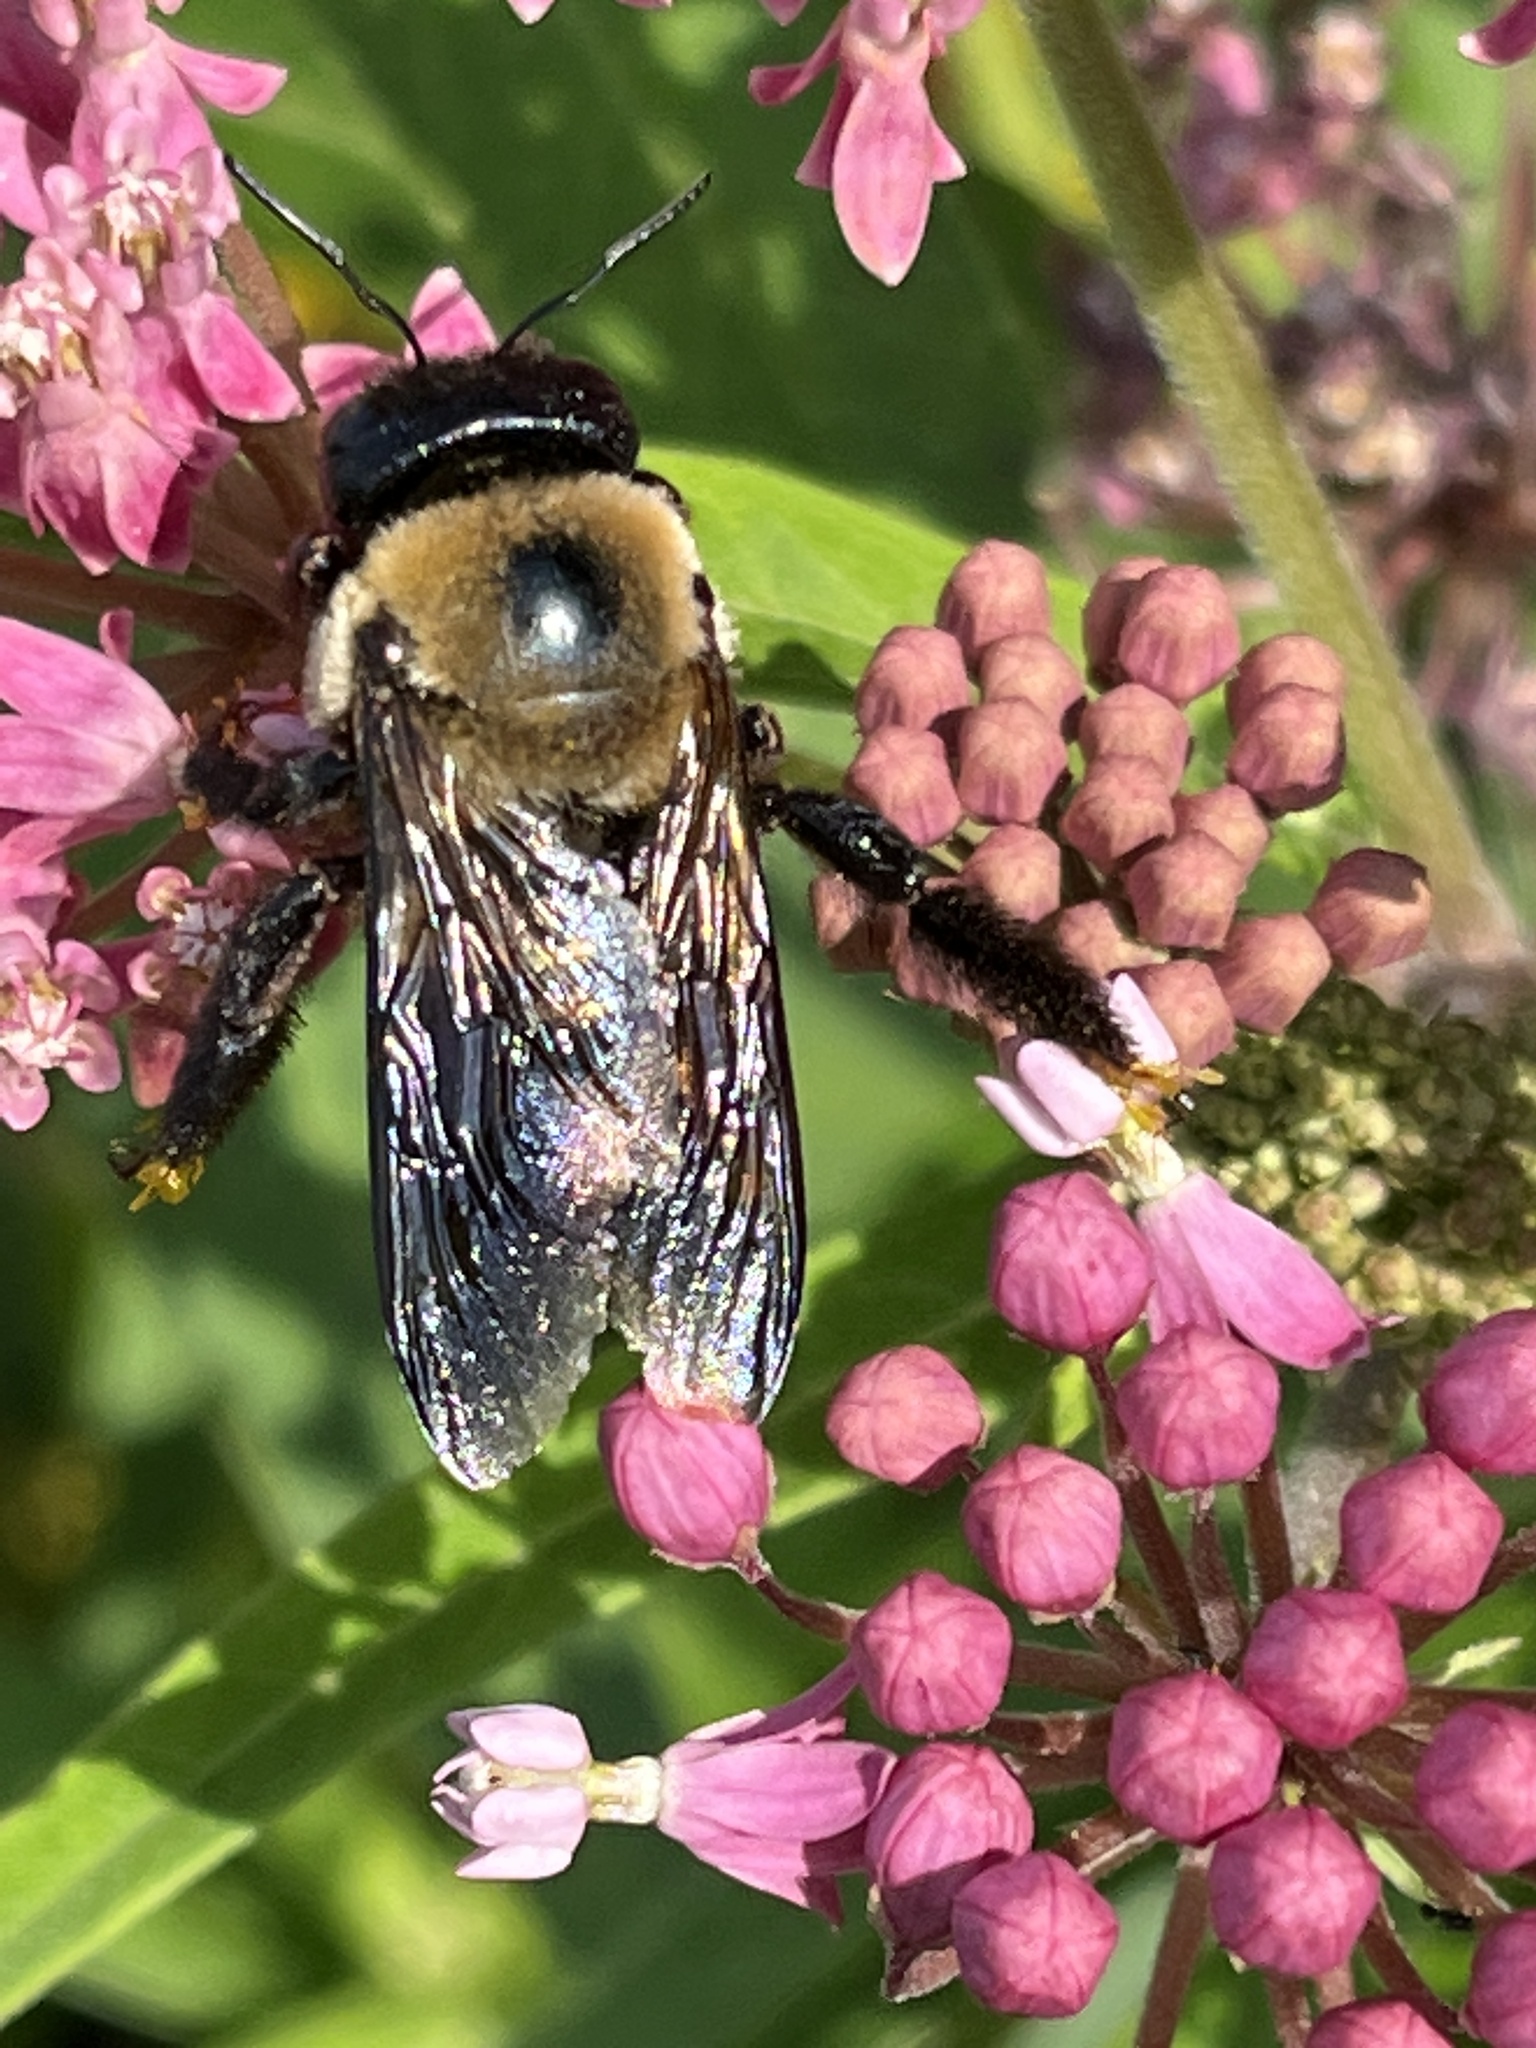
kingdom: Animalia
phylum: Arthropoda
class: Insecta
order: Hymenoptera
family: Apidae
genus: Xylocopa
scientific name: Xylocopa virginica
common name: Carpenter bee
